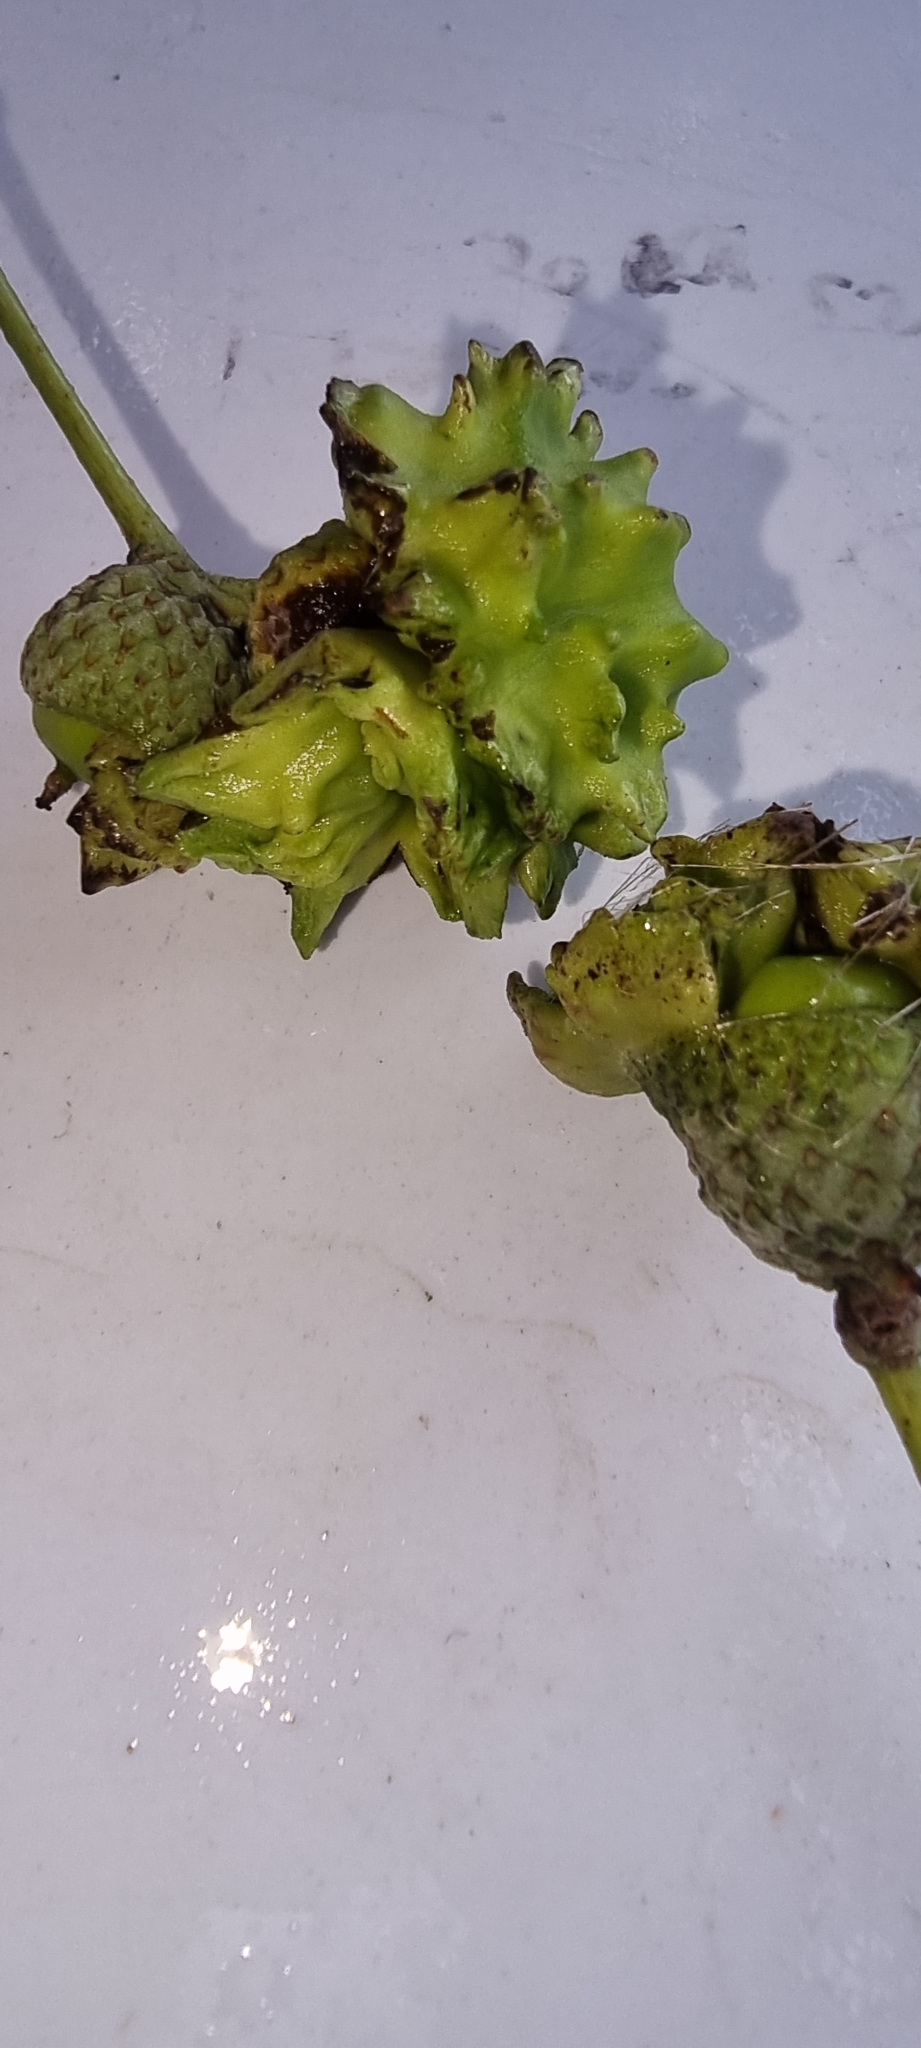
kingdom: Animalia
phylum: Arthropoda
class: Insecta
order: Hymenoptera
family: Cynipidae
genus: Andricus
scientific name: Andricus quercuscalicis
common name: Knopper gall
